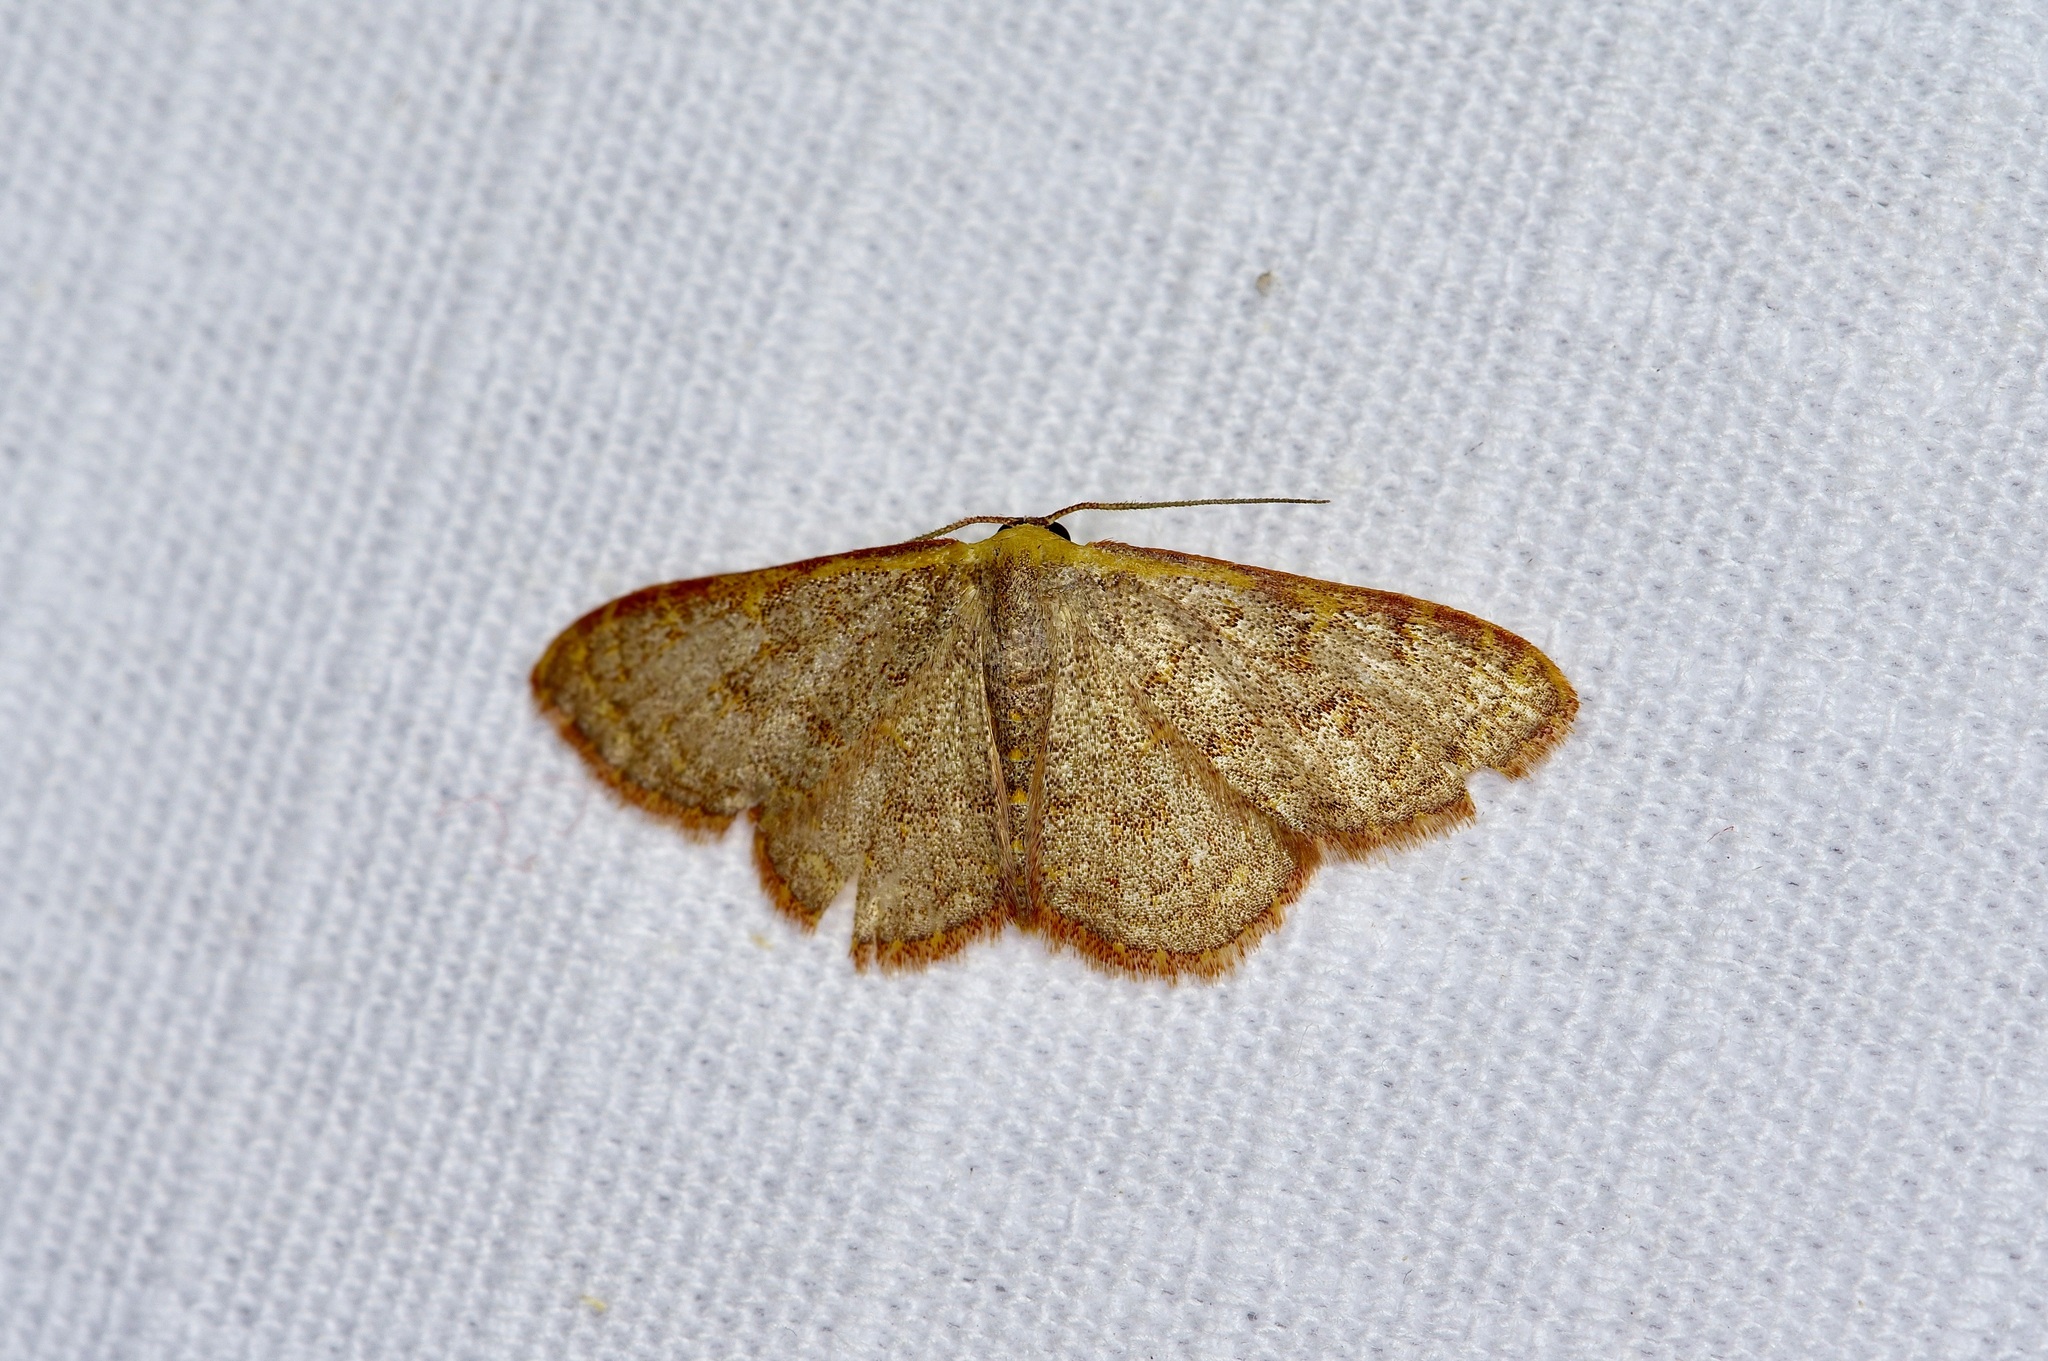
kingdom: Animalia
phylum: Arthropoda
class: Insecta
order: Lepidoptera
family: Geometridae
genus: Leptostales
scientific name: Leptostales pannaria
